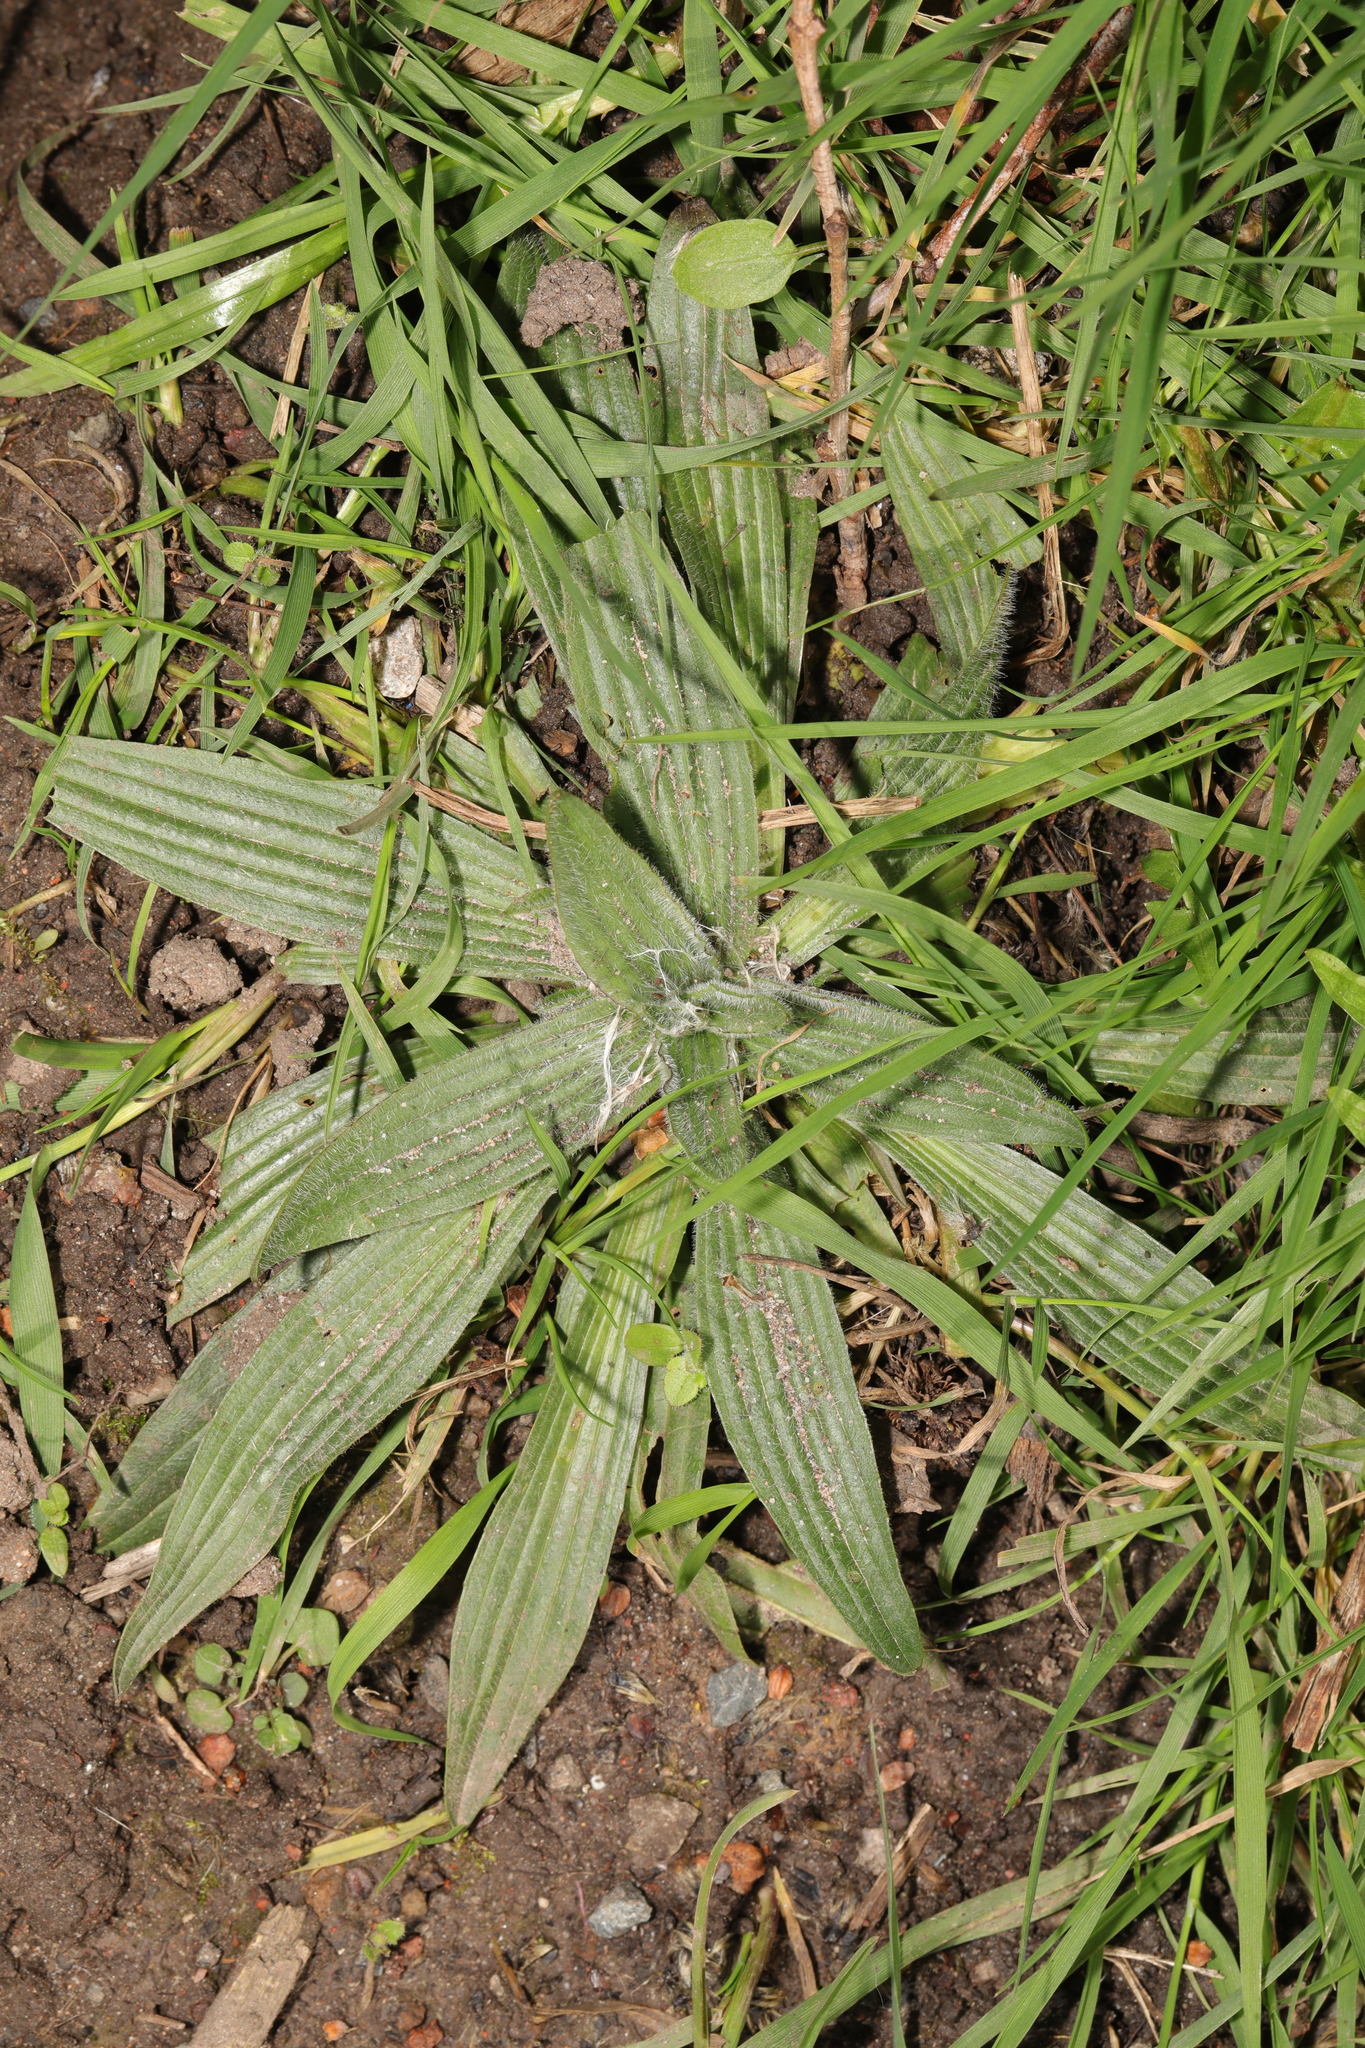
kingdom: Plantae
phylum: Tracheophyta
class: Magnoliopsida
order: Lamiales
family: Plantaginaceae
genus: Plantago
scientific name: Plantago lanceolata
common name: Ribwort plantain
